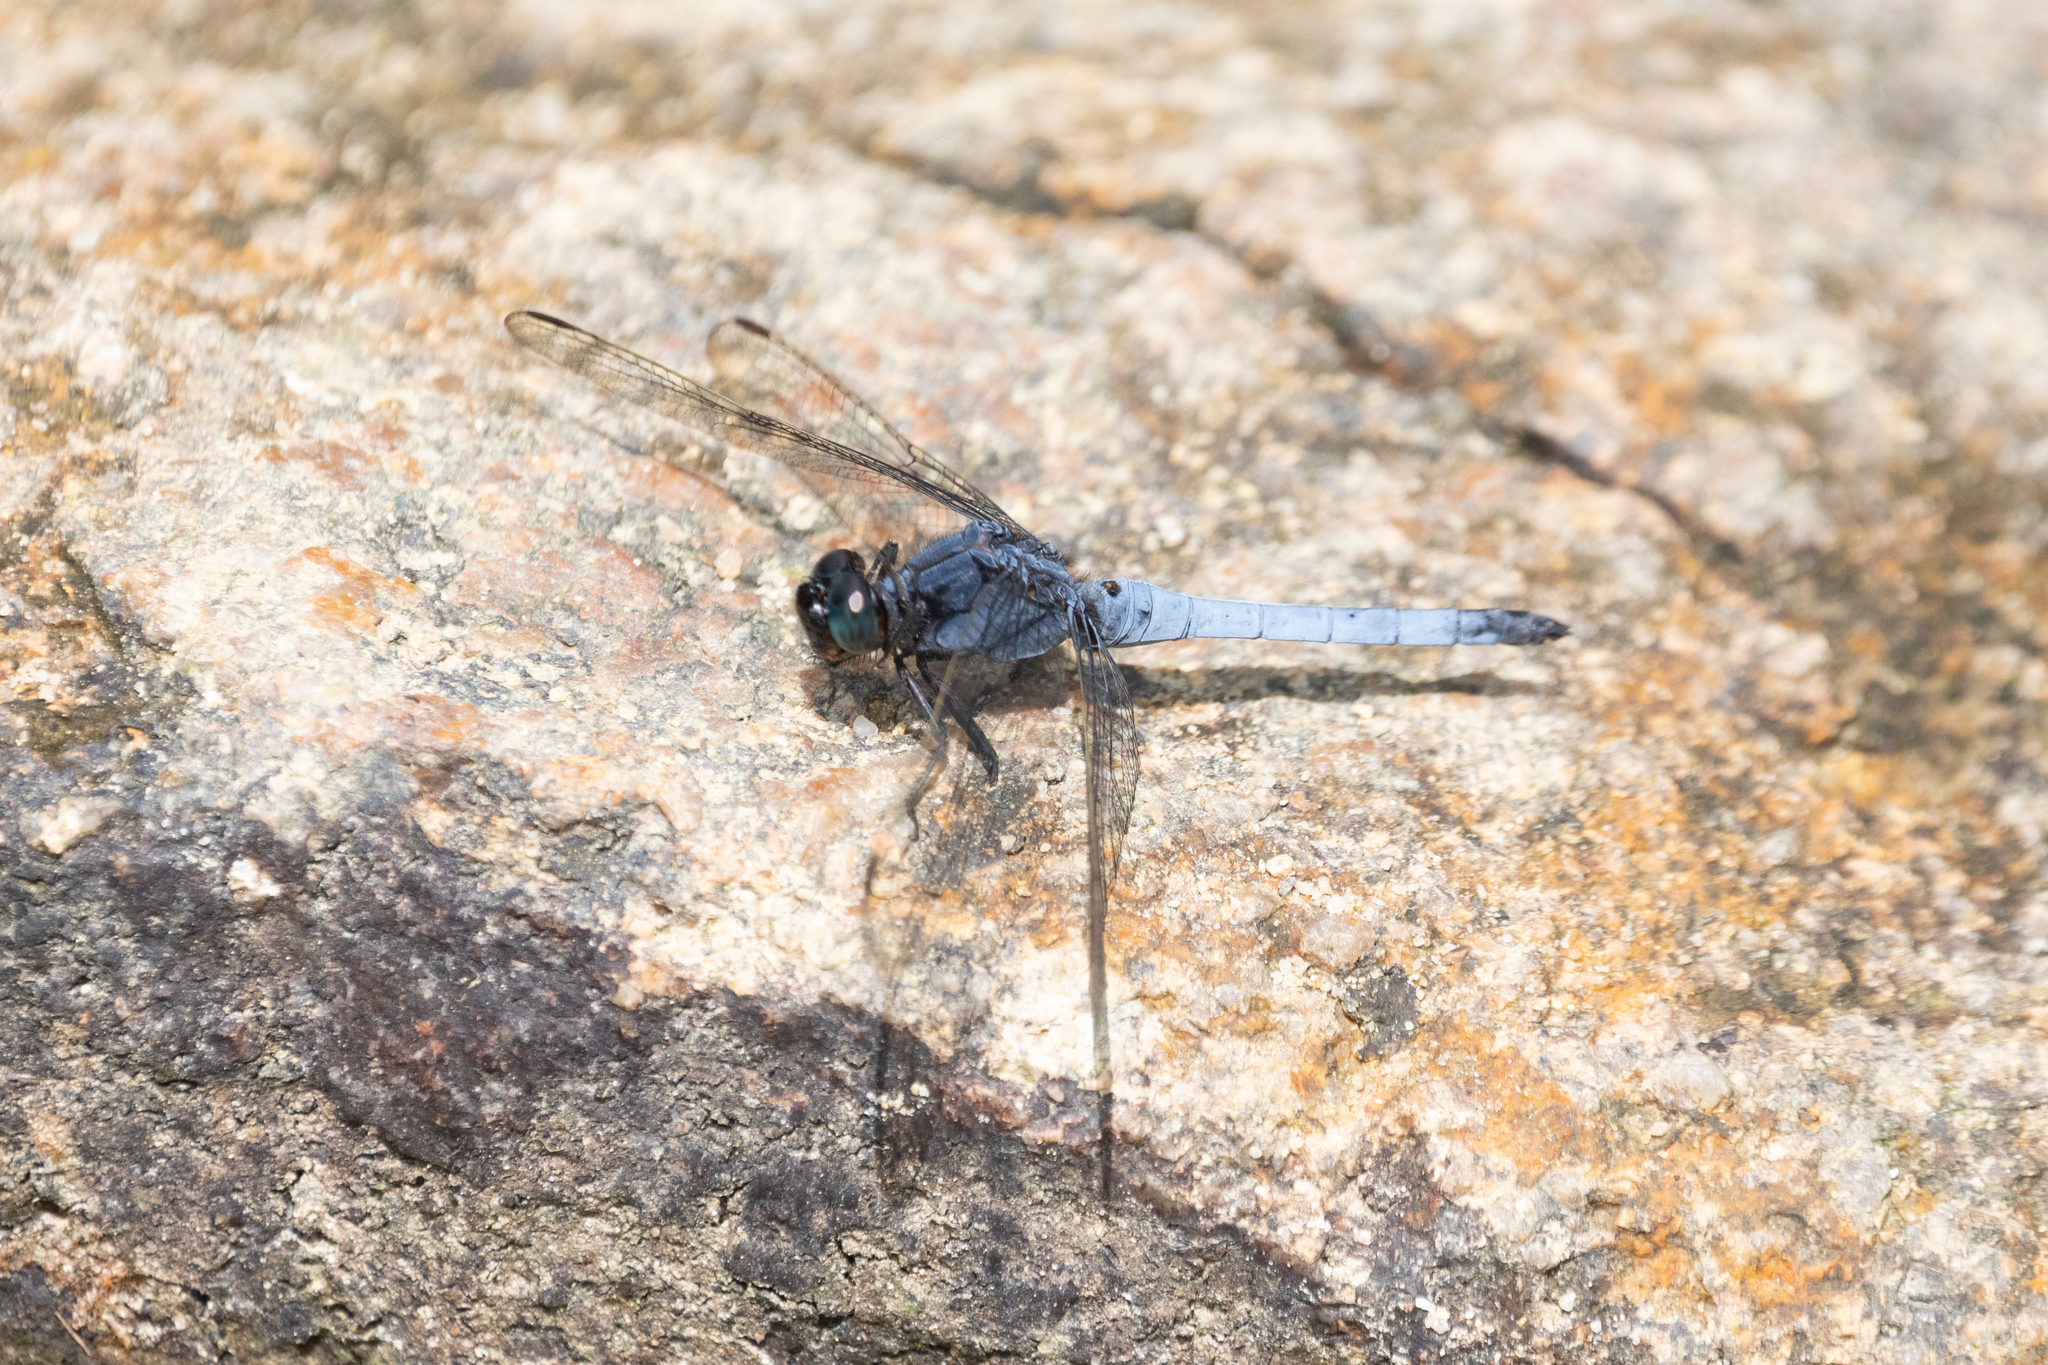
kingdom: Animalia
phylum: Arthropoda
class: Insecta
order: Odonata
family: Libellulidae
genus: Orthetrum
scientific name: Orthetrum glaucum
